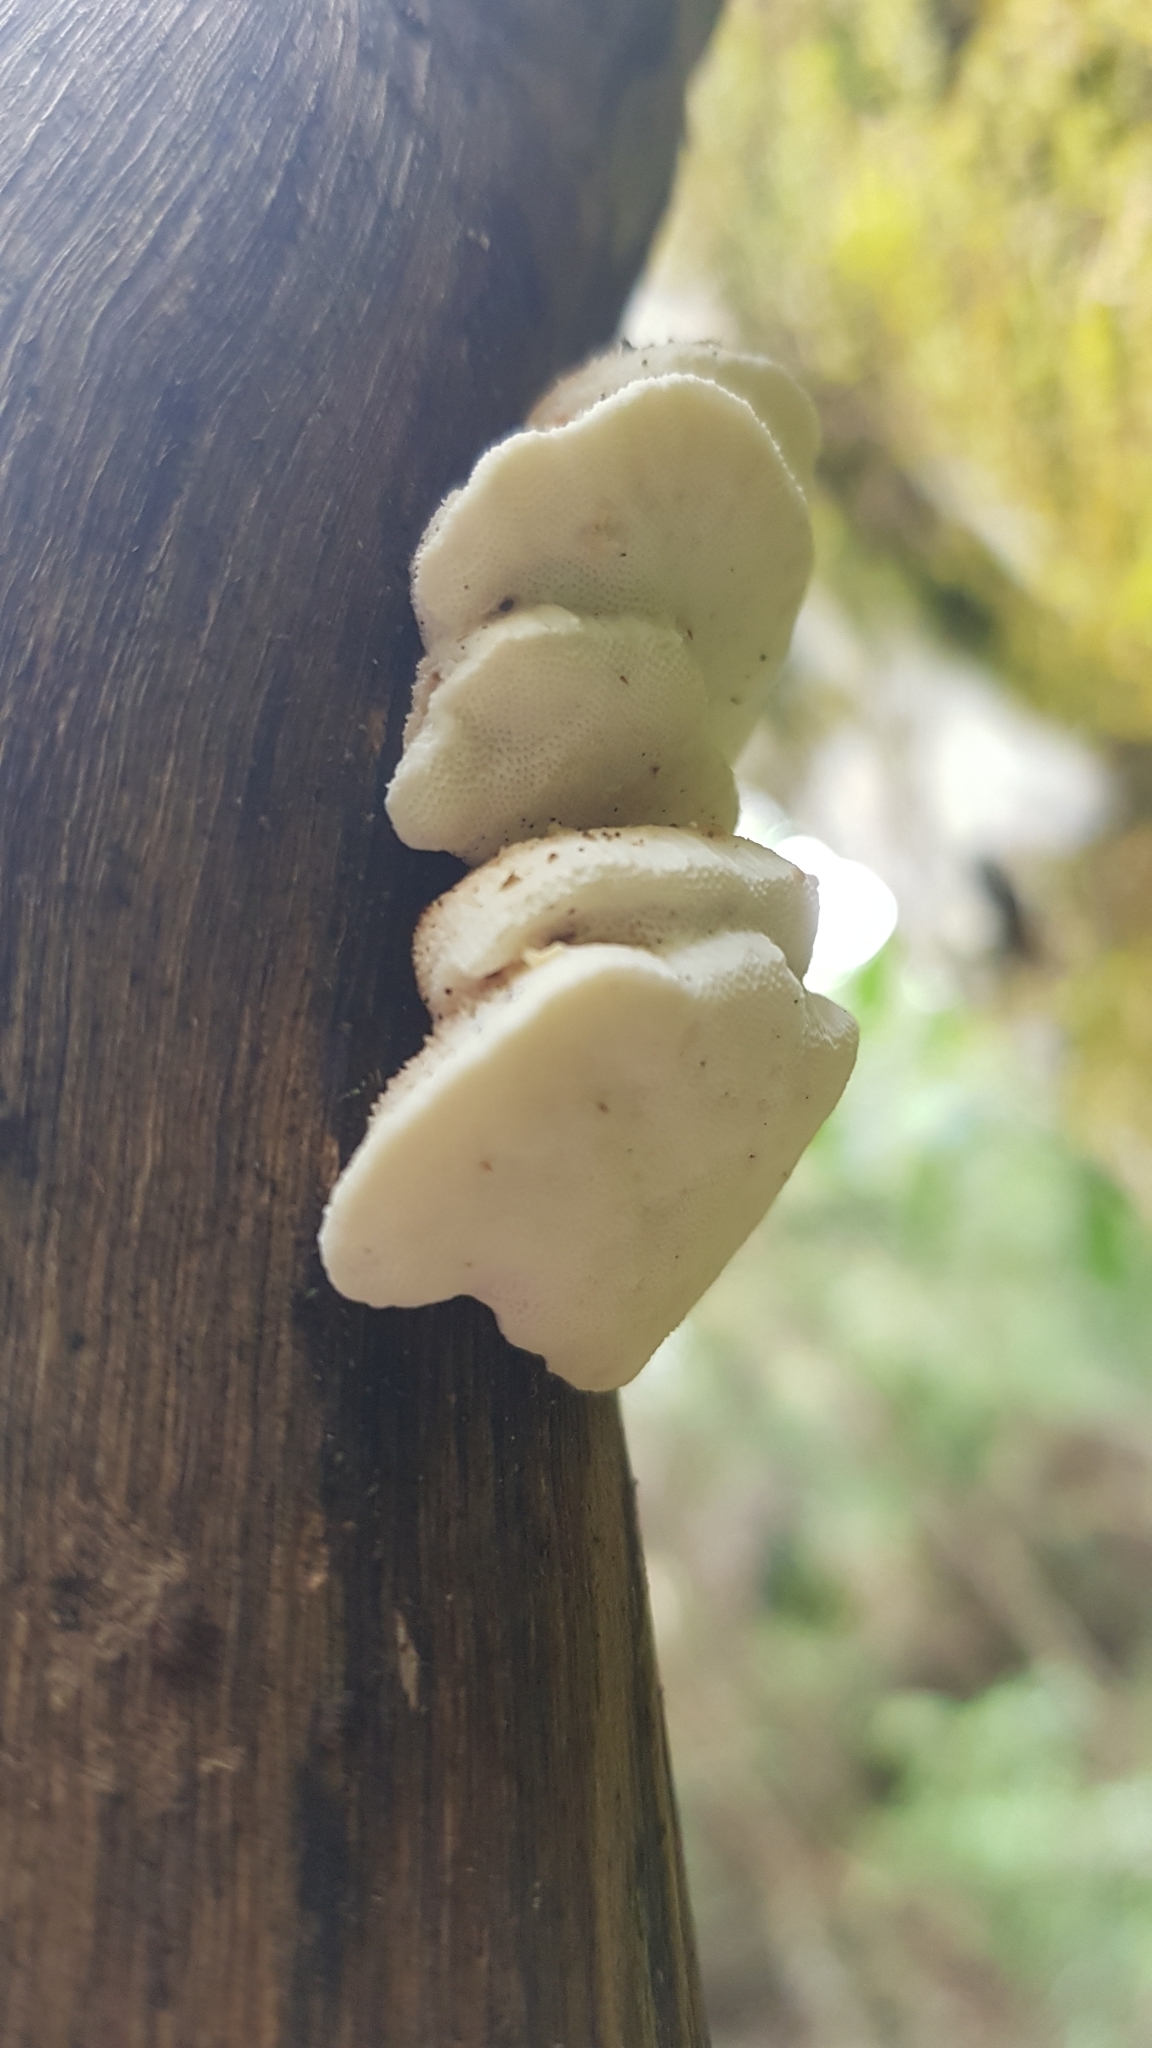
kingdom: Fungi
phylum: Basidiomycota
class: Agaricomycetes
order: Polyporales
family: Polyporaceae
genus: Truncospora
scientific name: Truncospora ochroleuca
